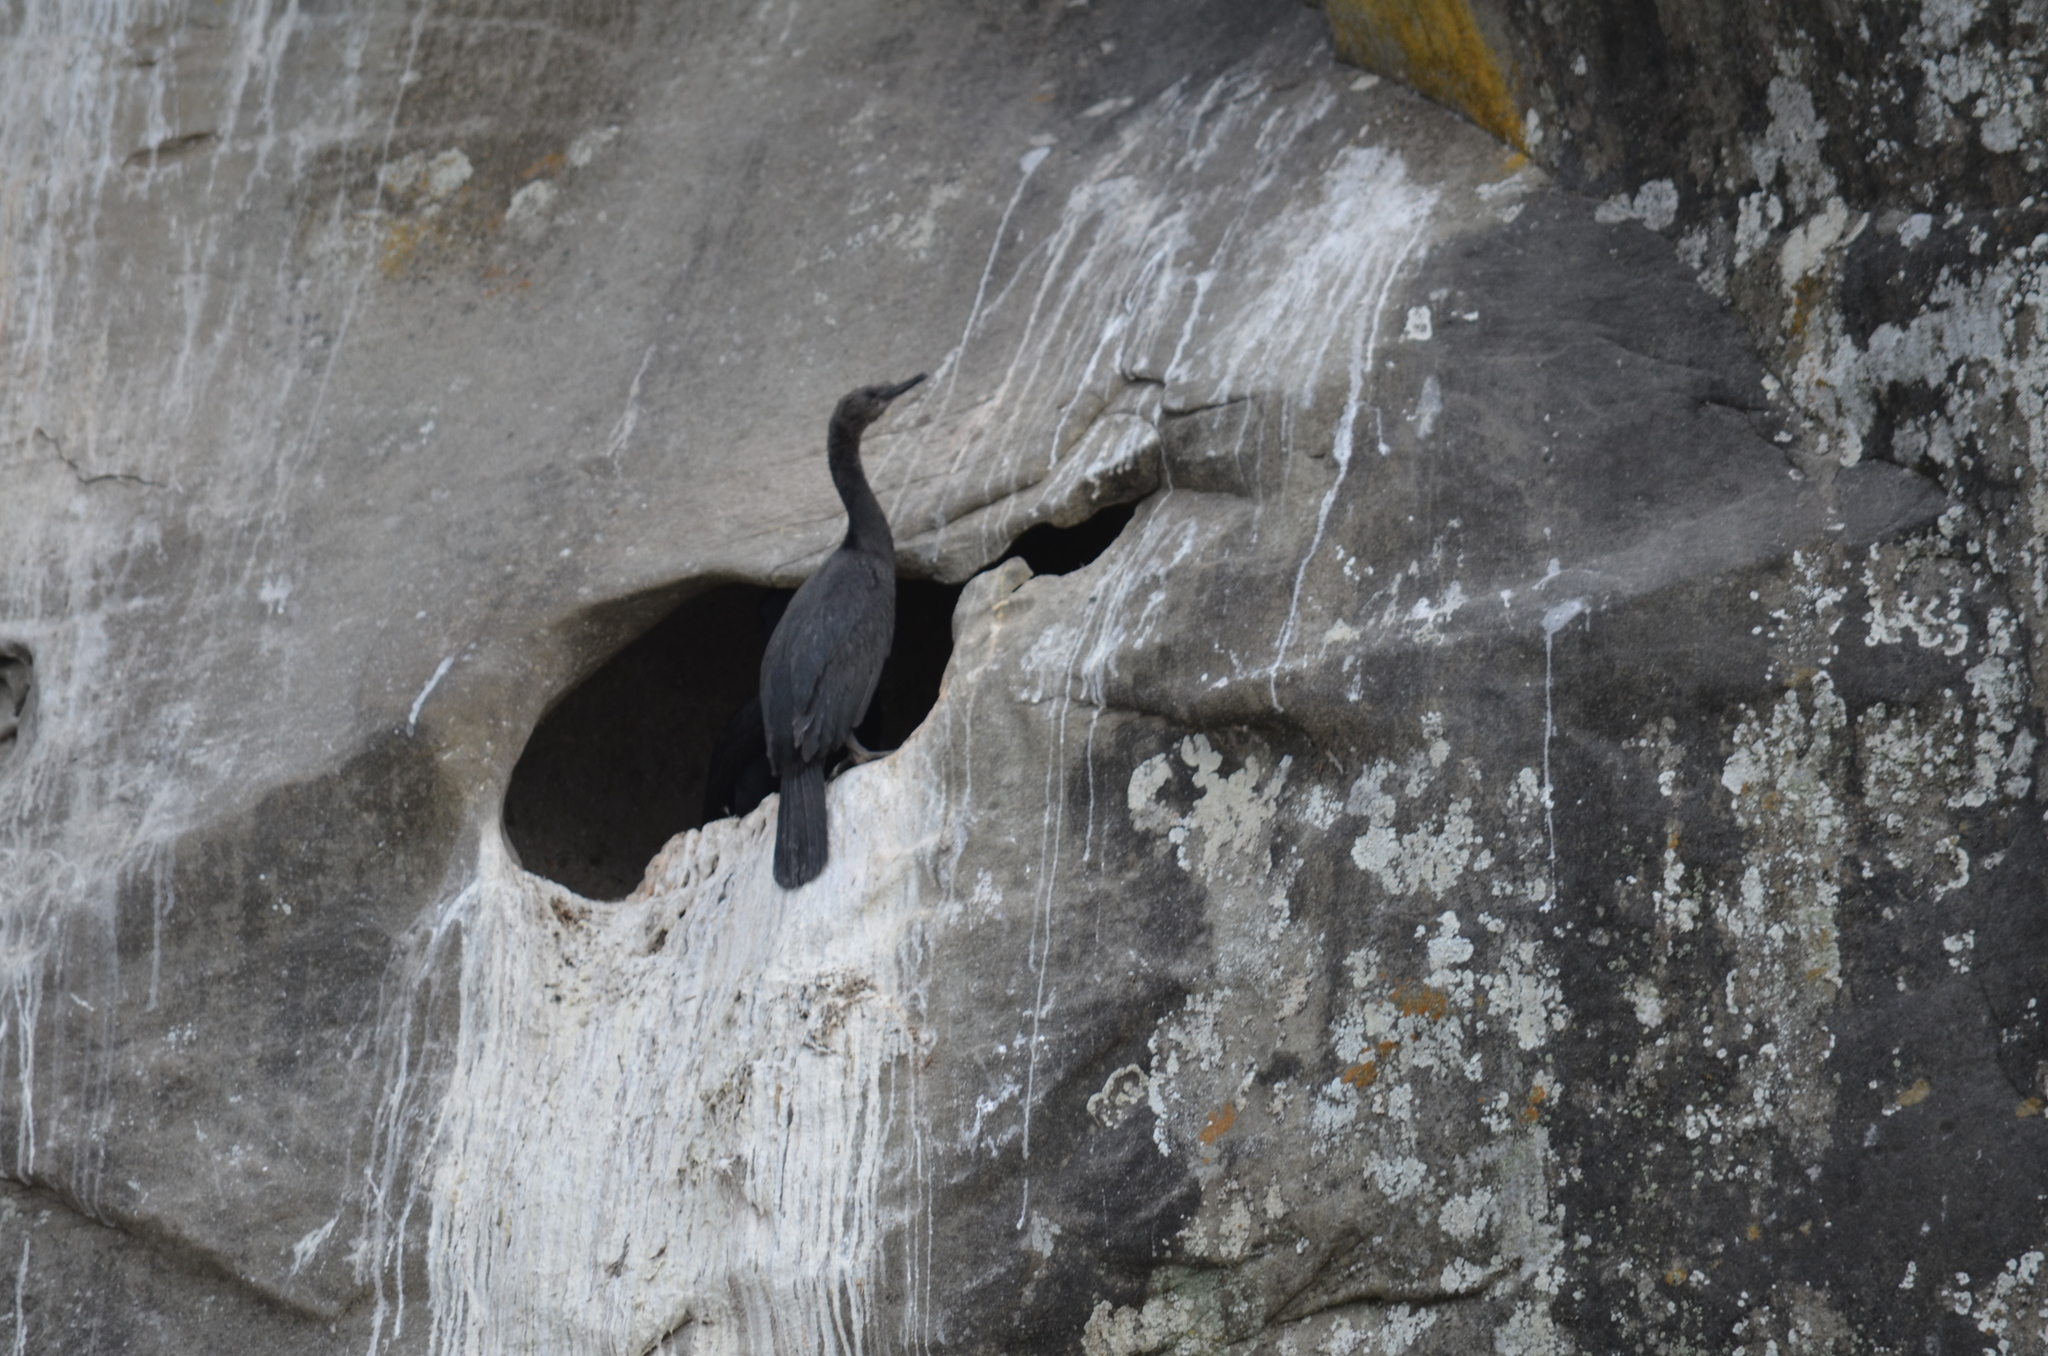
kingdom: Animalia
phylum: Chordata
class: Aves
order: Suliformes
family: Phalacrocoracidae
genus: Urile
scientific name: Urile penicillatus
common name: Brandt's cormorant
